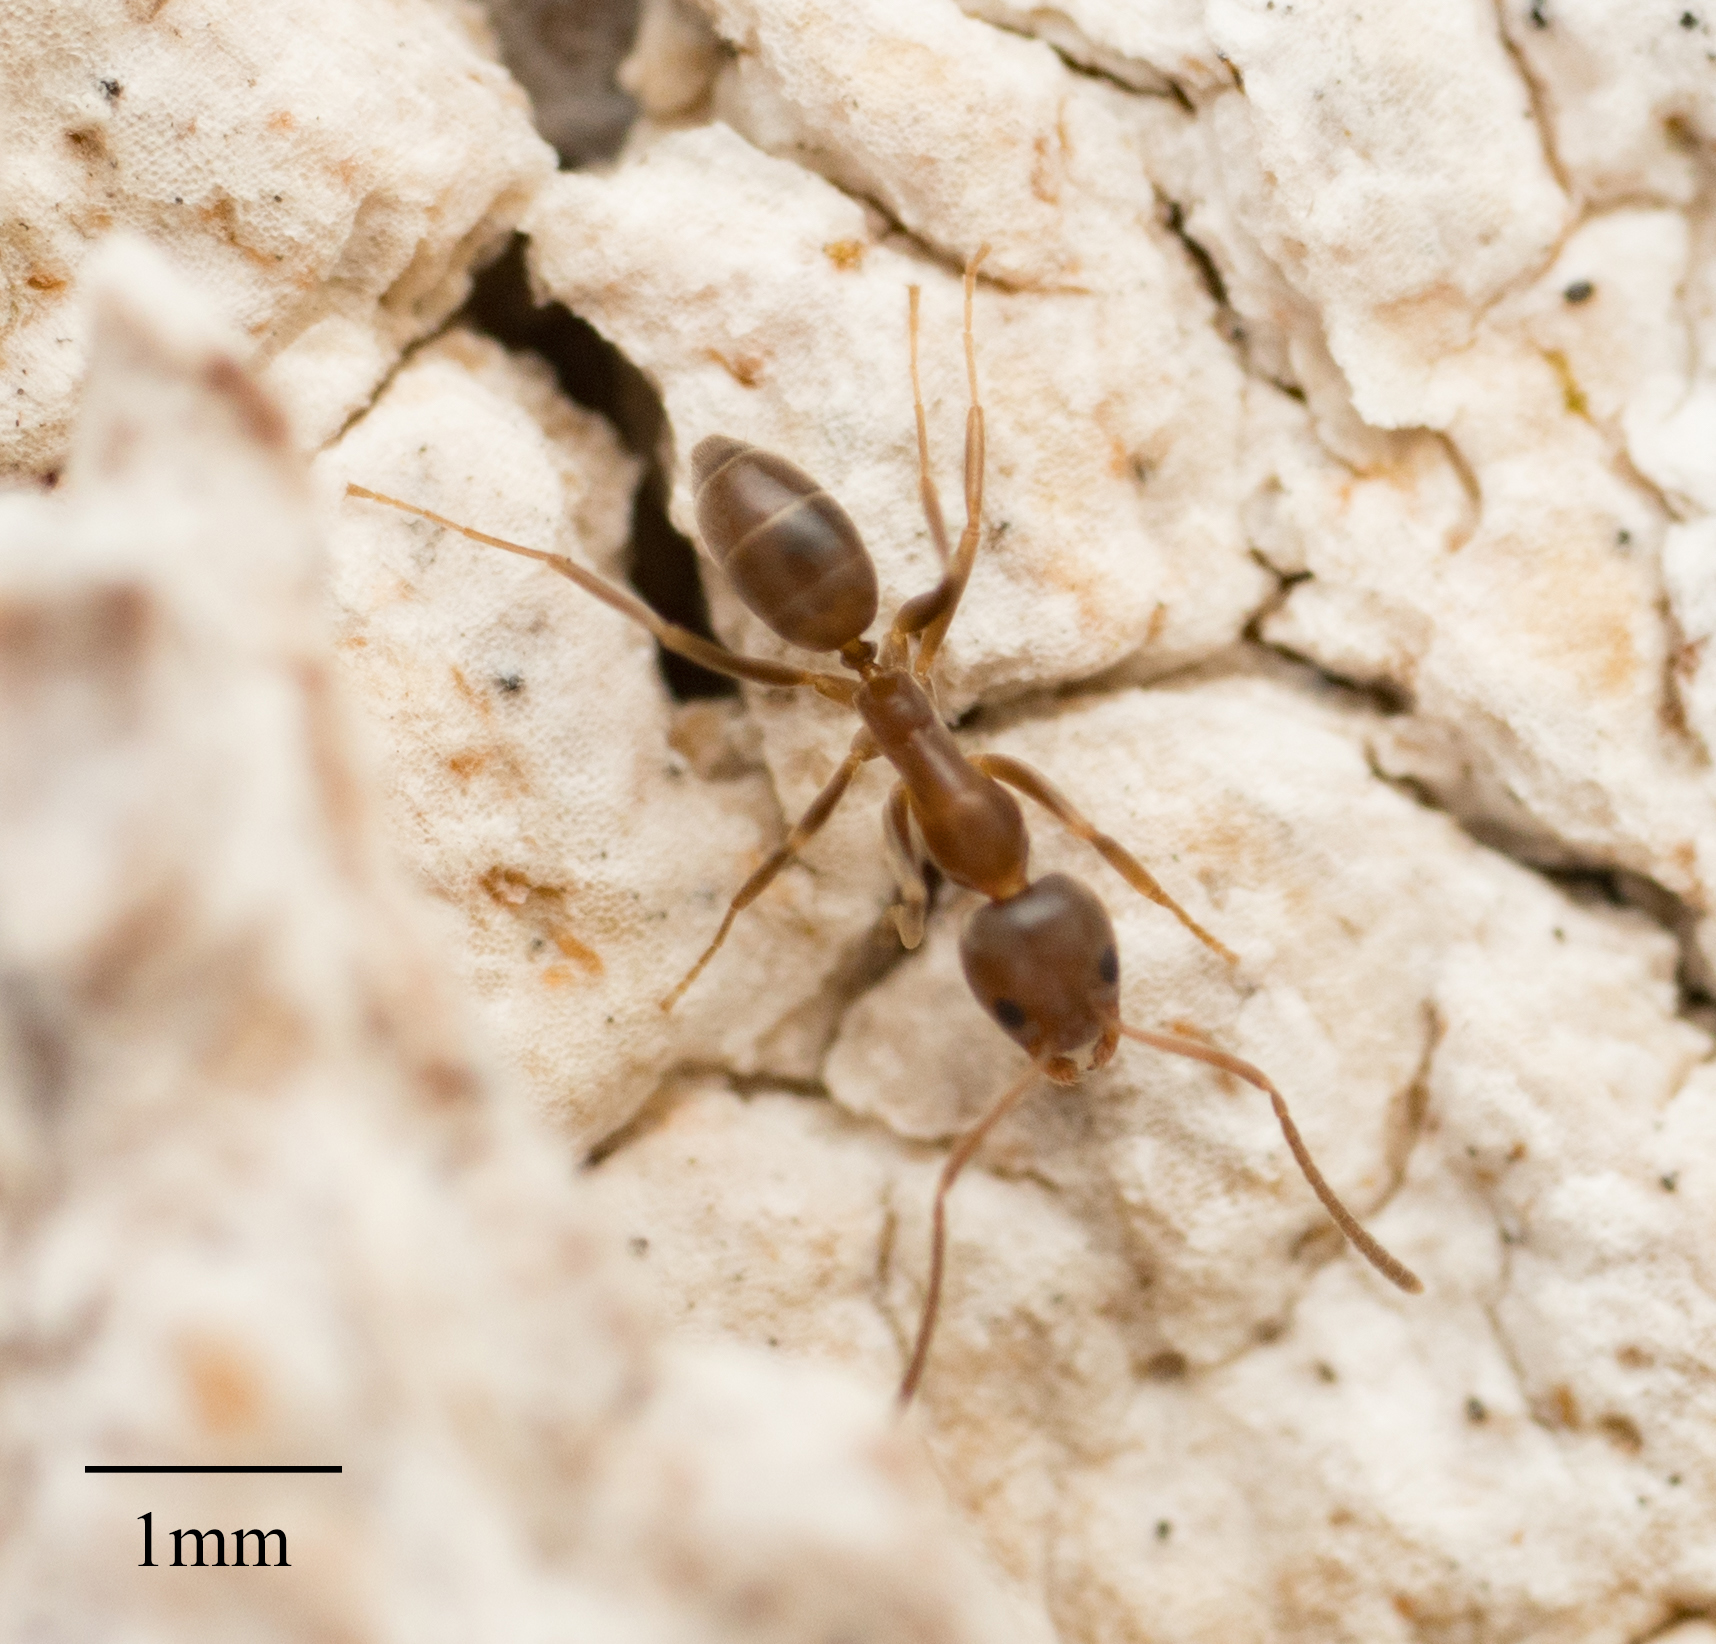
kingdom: Animalia
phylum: Arthropoda
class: Insecta
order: Hymenoptera
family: Formicidae
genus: Linepithema
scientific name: Linepithema humile
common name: Argentine ant
